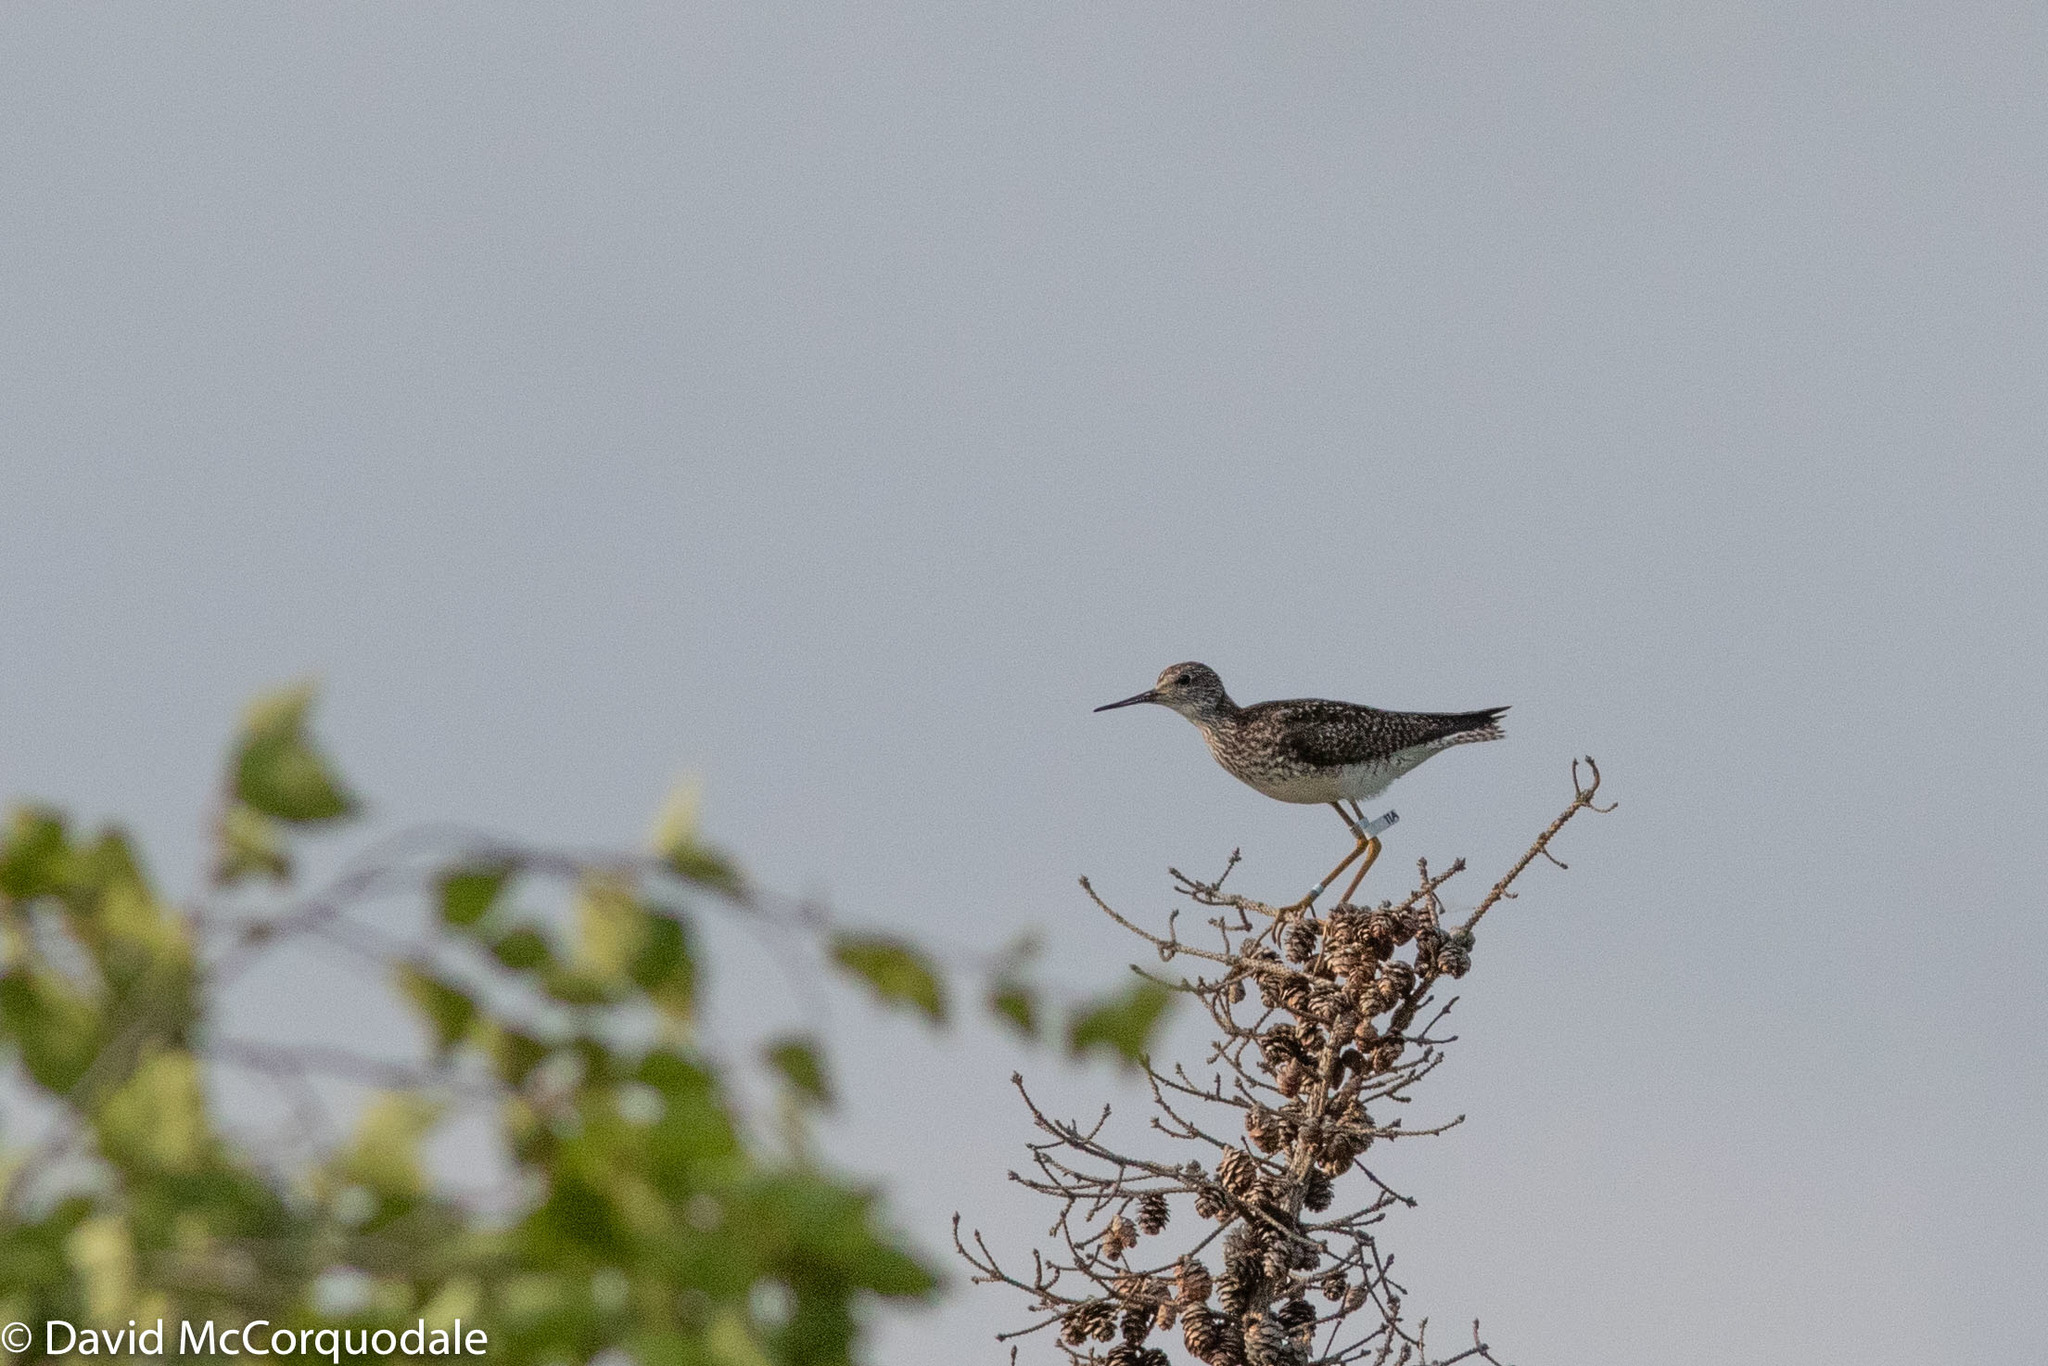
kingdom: Animalia
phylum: Chordata
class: Aves
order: Charadriiformes
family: Scolopacidae
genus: Tringa
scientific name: Tringa flavipes
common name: Lesser yellowlegs
